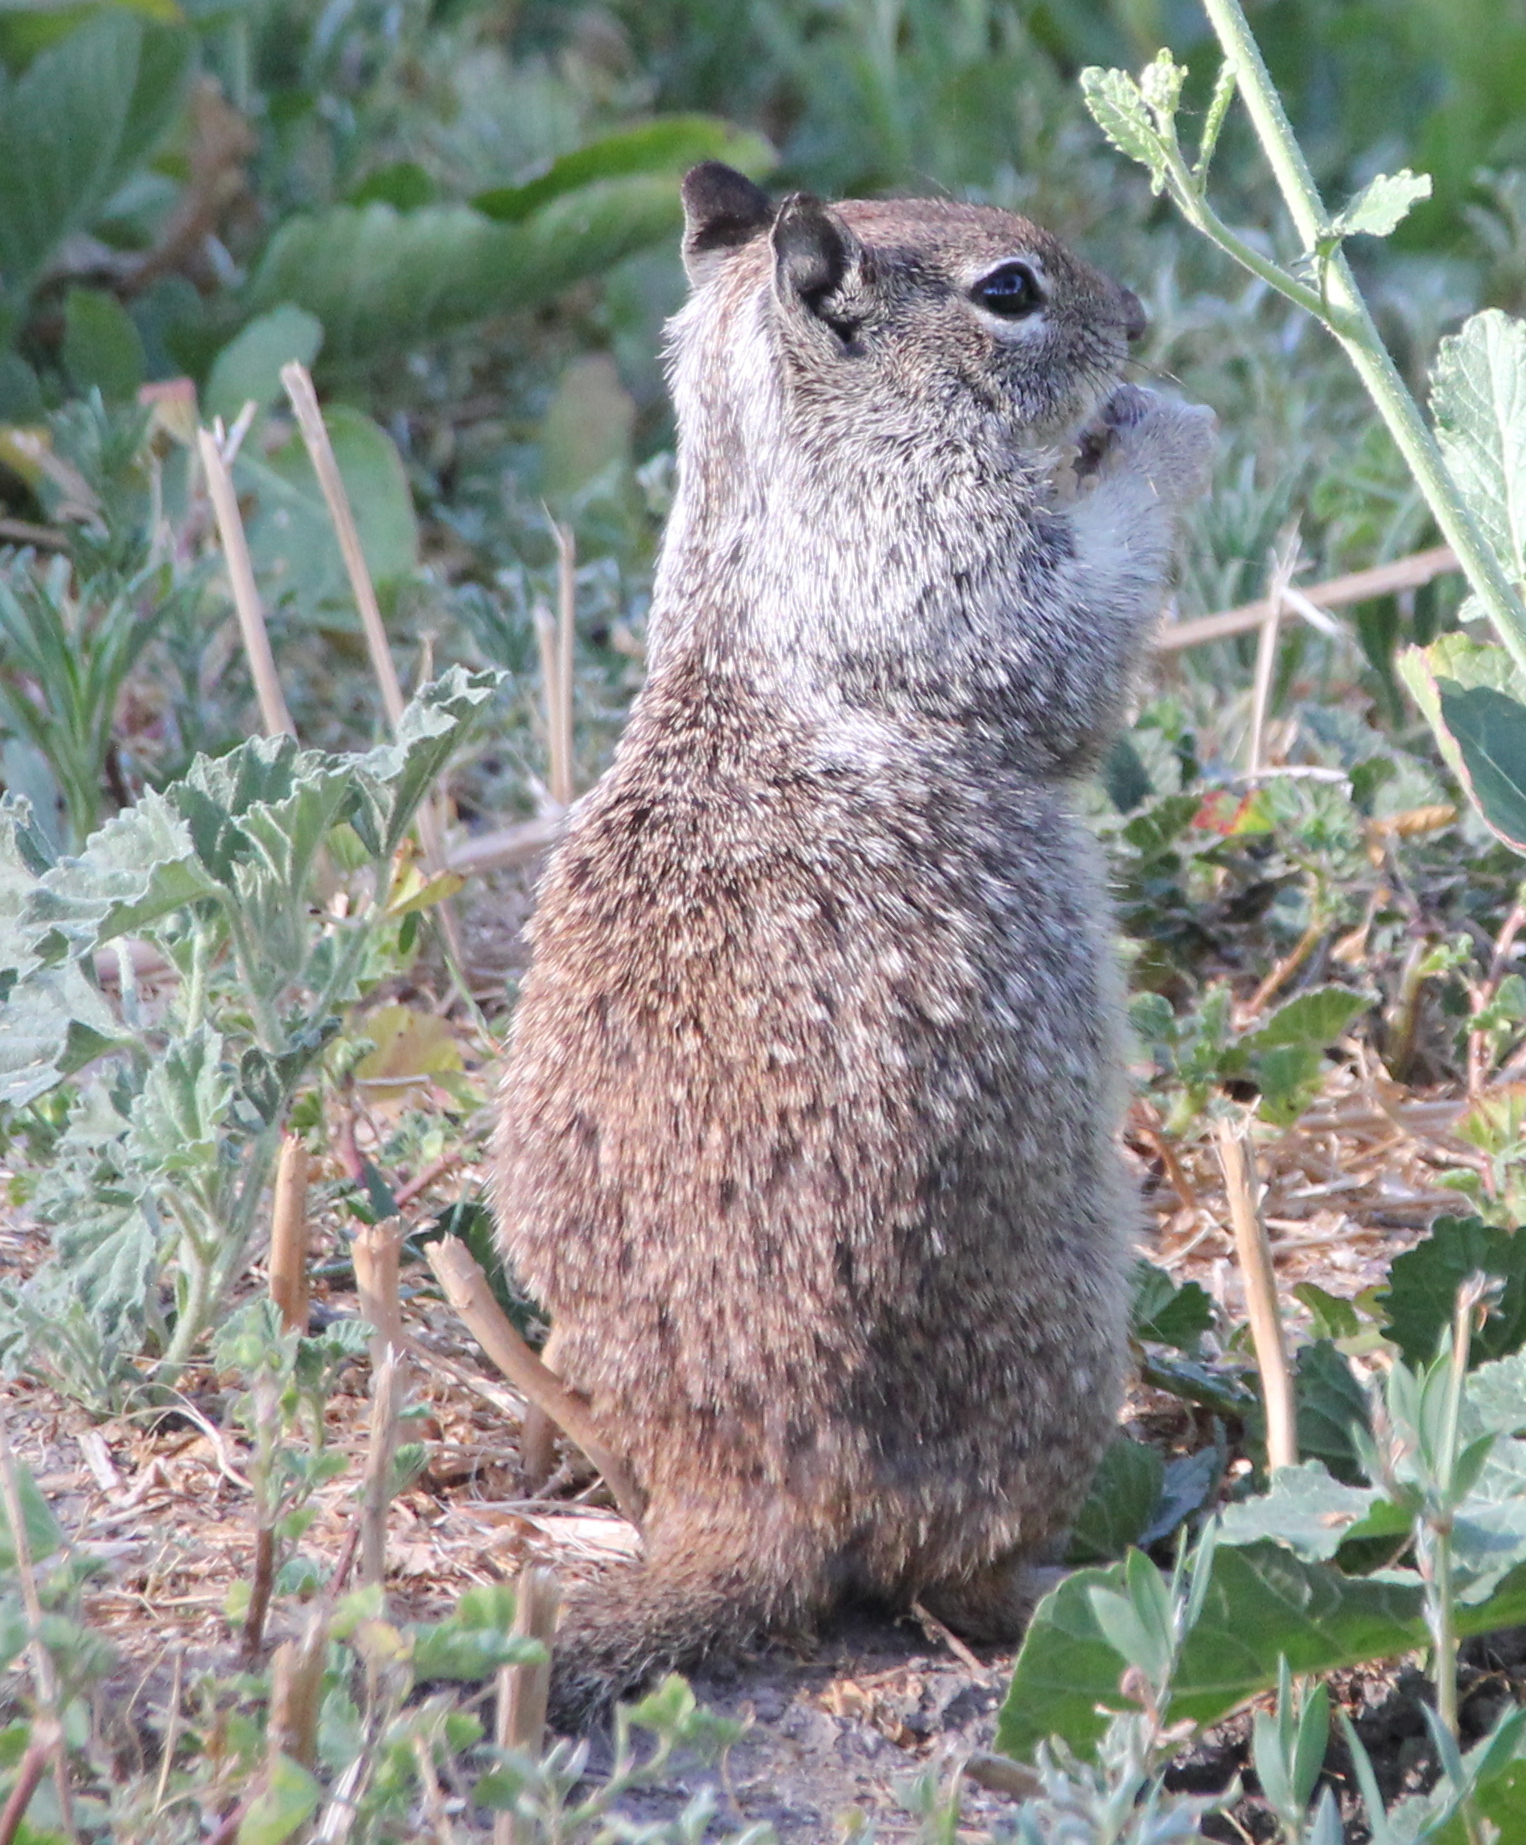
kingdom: Animalia
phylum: Chordata
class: Mammalia
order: Rodentia
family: Sciuridae
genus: Otospermophilus
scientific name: Otospermophilus beecheyi
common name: California ground squirrel
